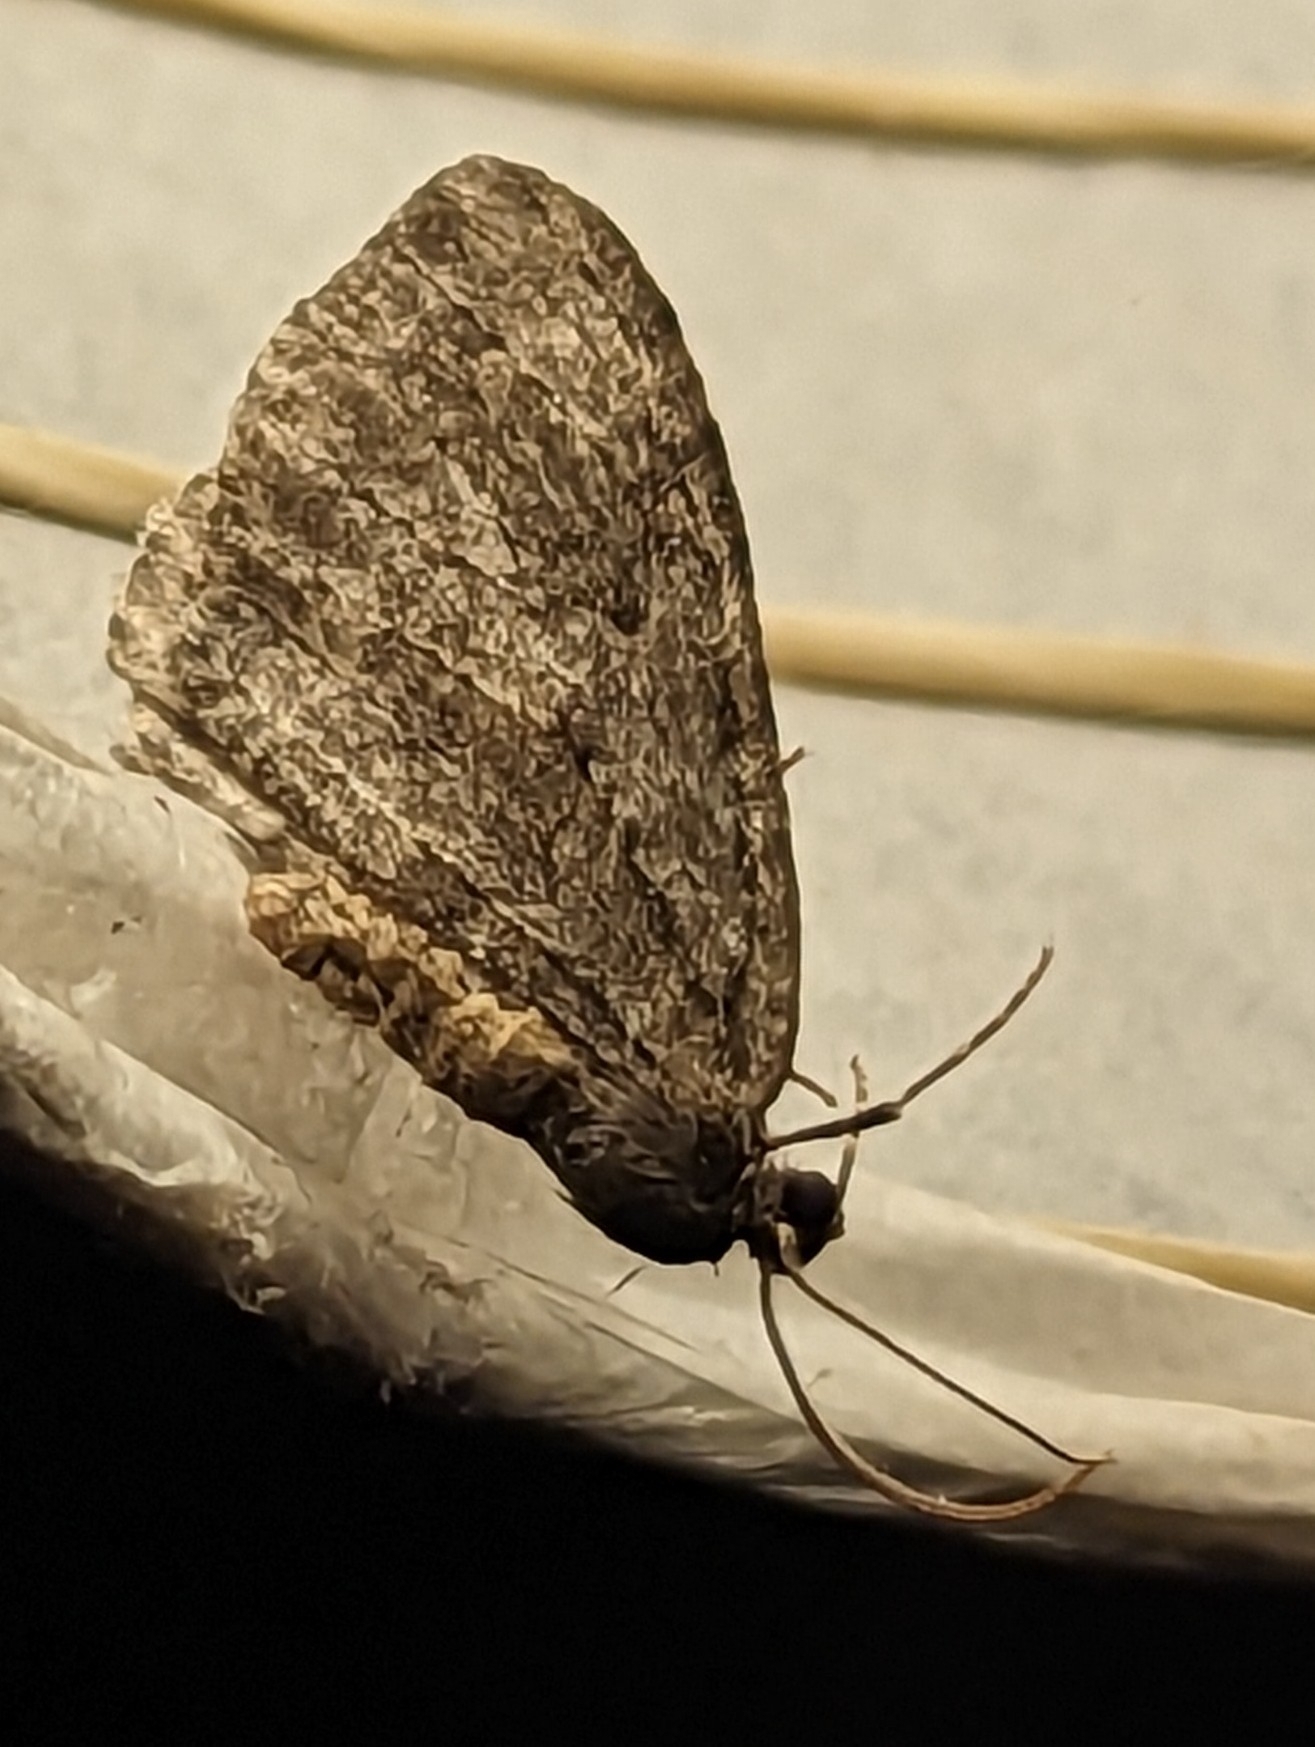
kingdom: Animalia
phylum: Arthropoda
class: Insecta
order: Lepidoptera
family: Geometridae
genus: Epirrita
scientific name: Epirrita dilutata
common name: November moth
